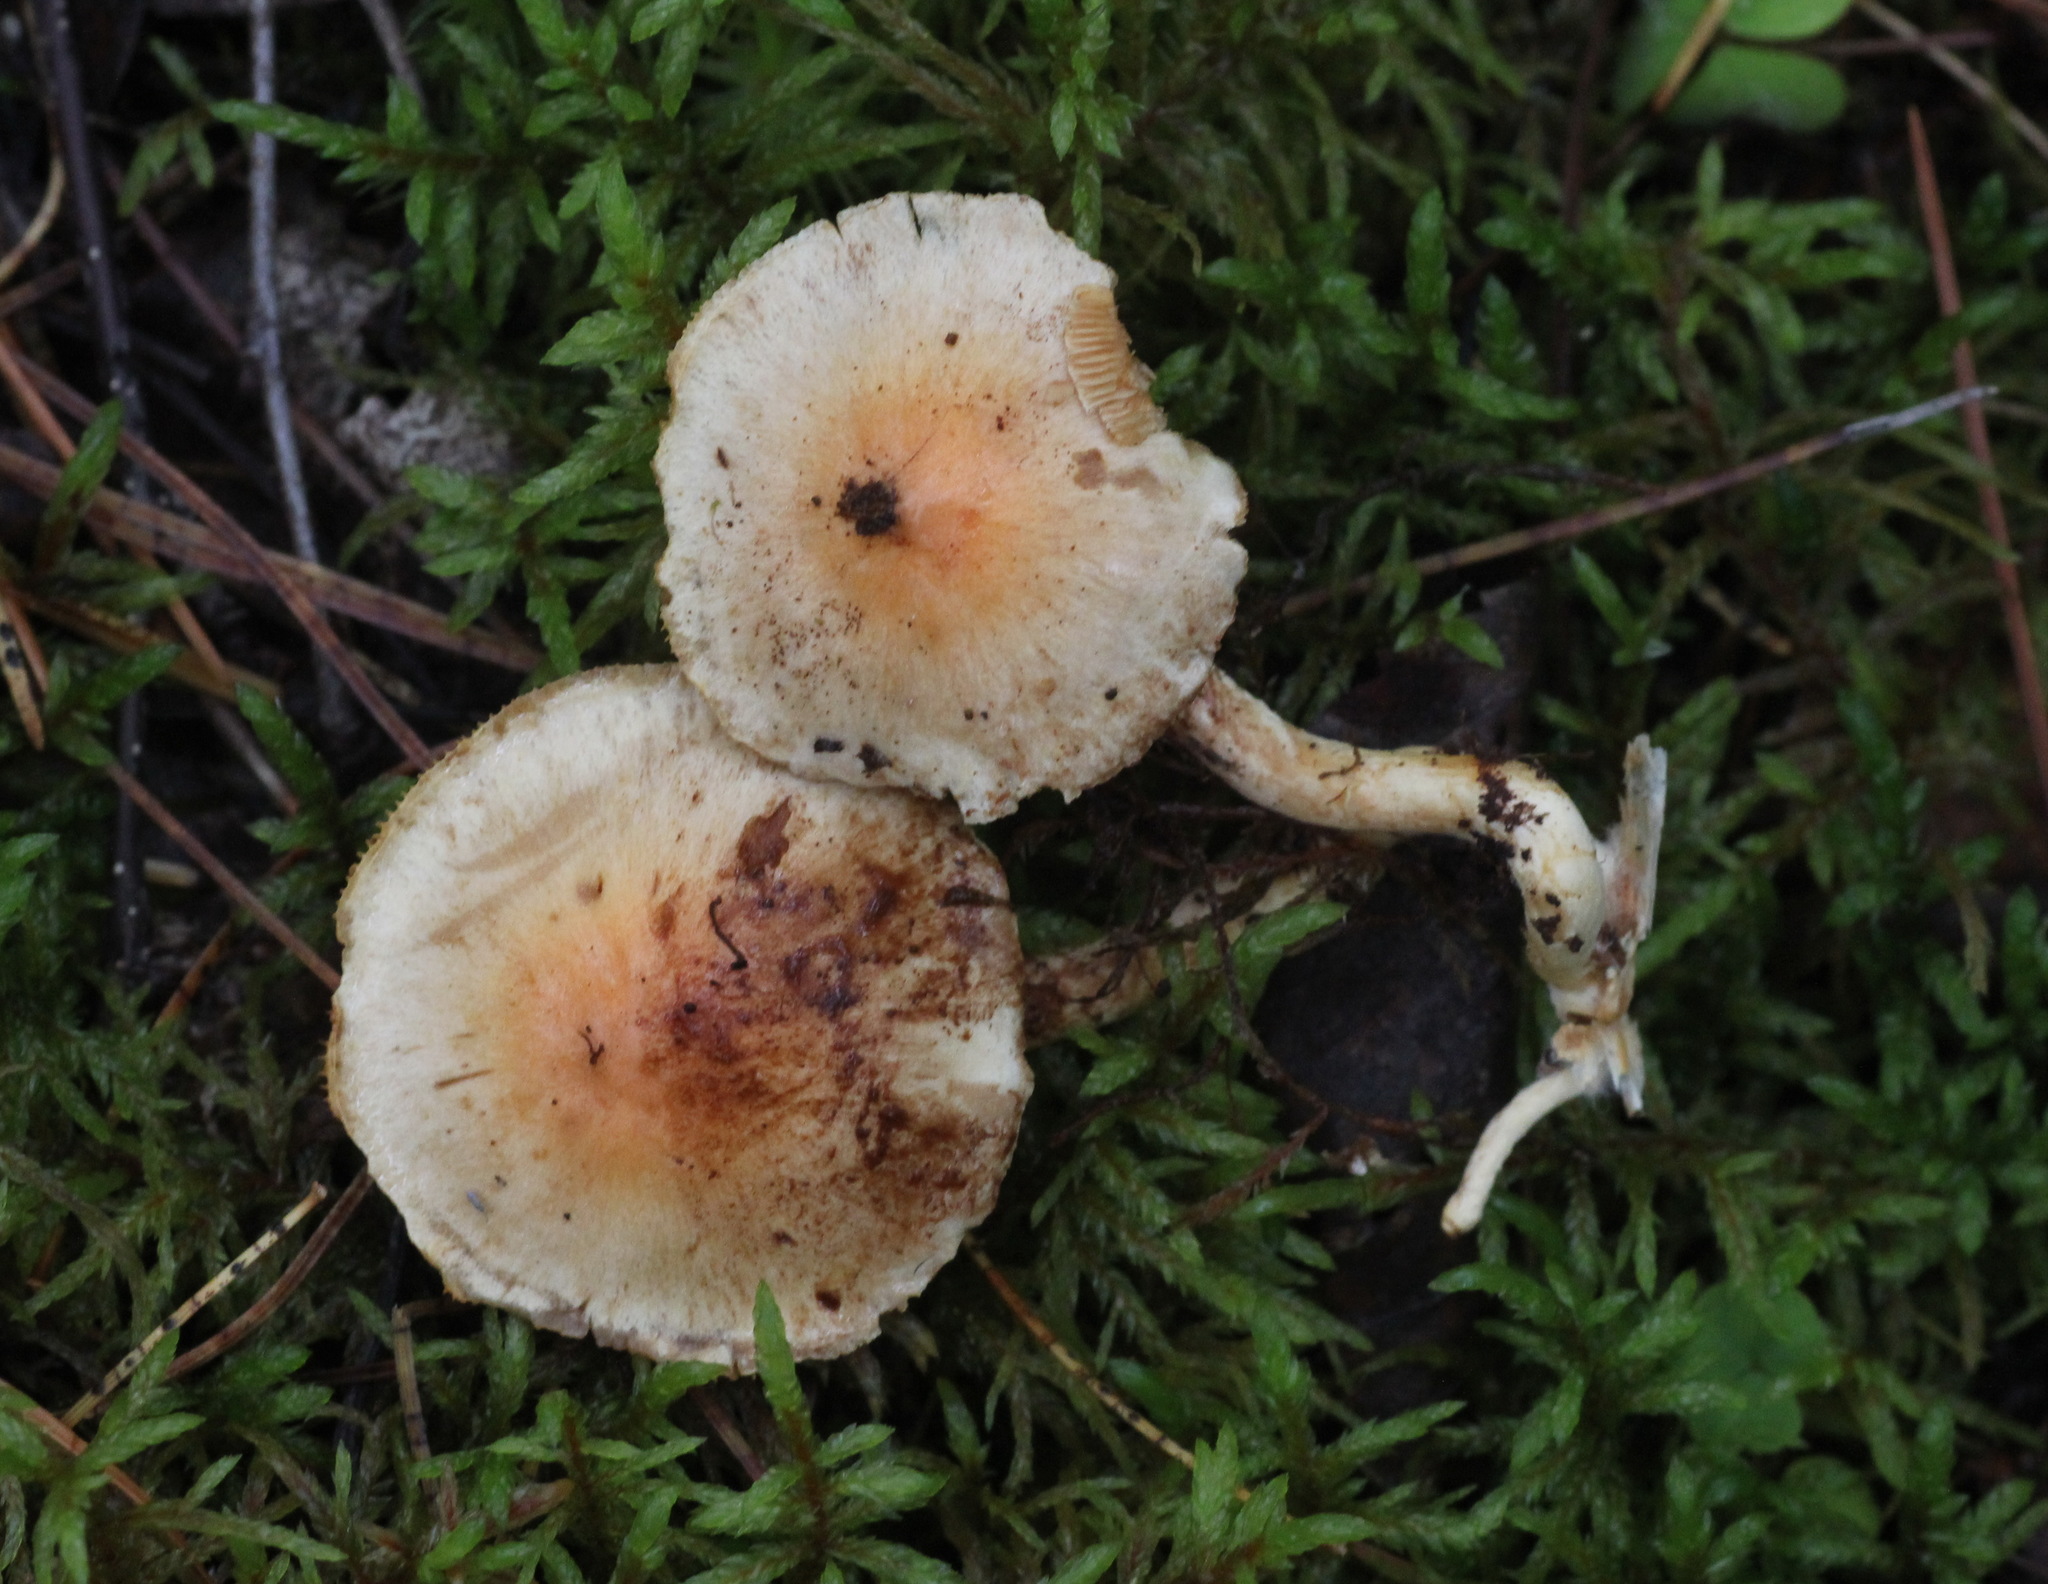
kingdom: Fungi
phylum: Basidiomycota
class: Agaricomycetes
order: Agaricales
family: Strophariaceae
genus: Hypholoma
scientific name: Hypholoma lateritium
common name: Brick caps
